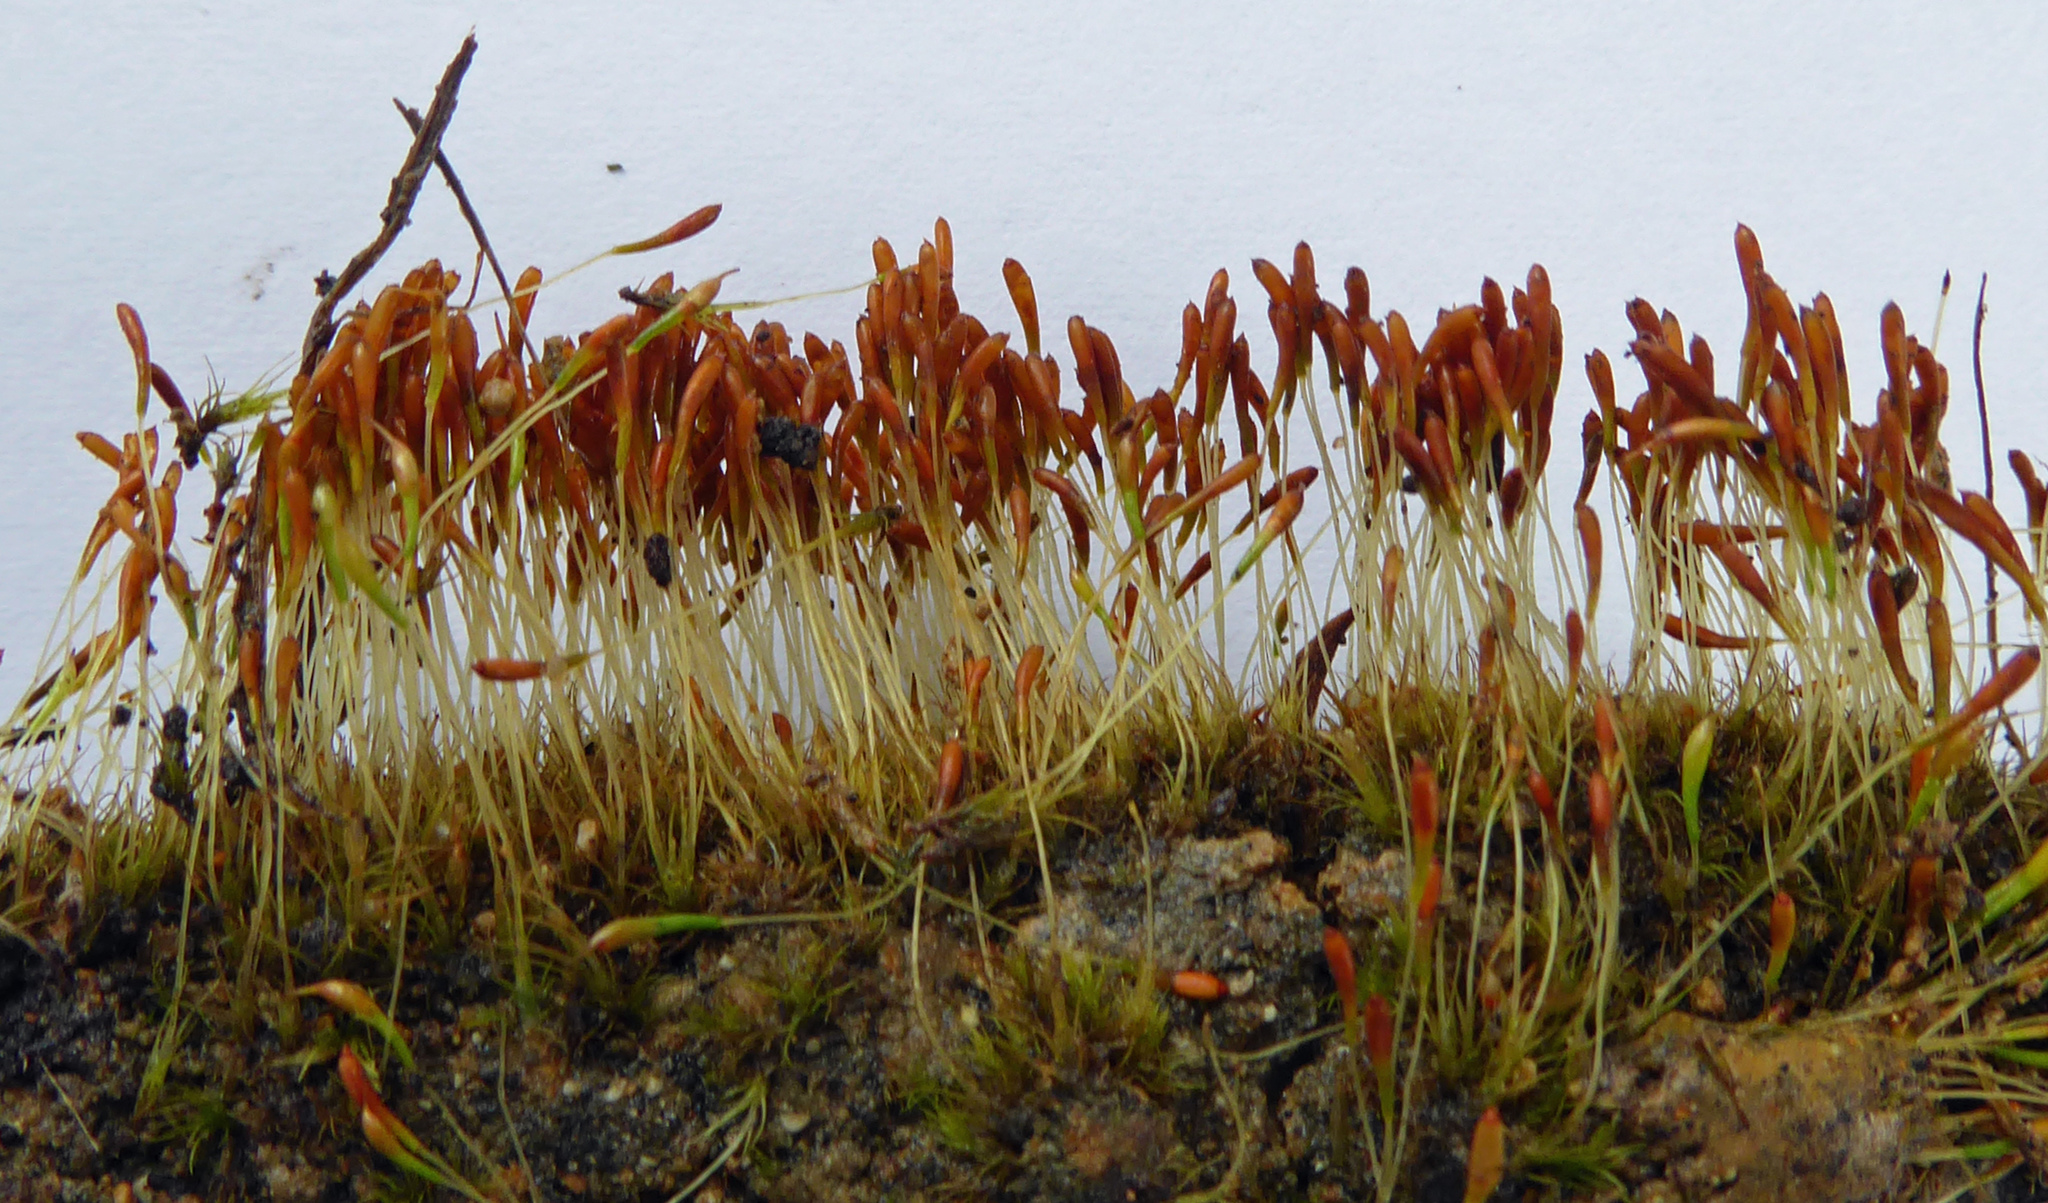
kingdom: Plantae
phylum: Bryophyta
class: Bryopsida
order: Dicranales
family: Bruchiaceae
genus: Trematodon
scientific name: Trematodon suberectus
